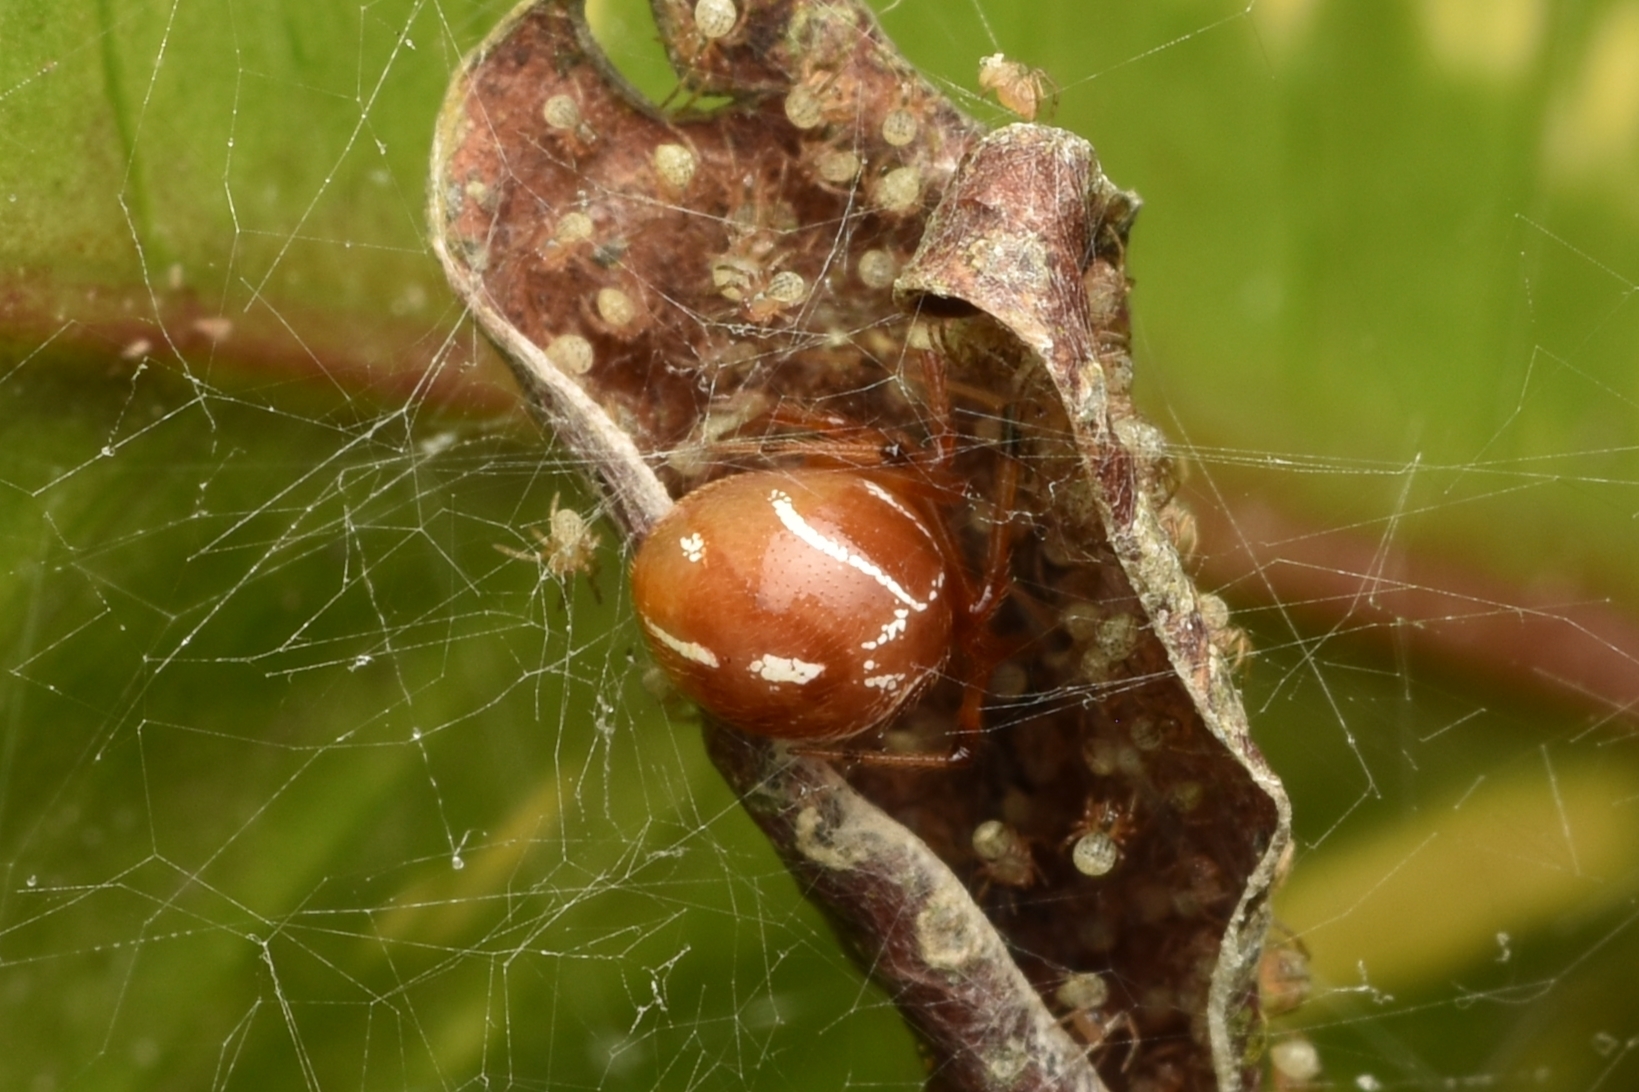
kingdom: Animalia
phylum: Arthropoda
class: Arachnida
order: Araneae
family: Theridiidae
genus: Nihonhimea
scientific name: Nihonhimea tesselata
